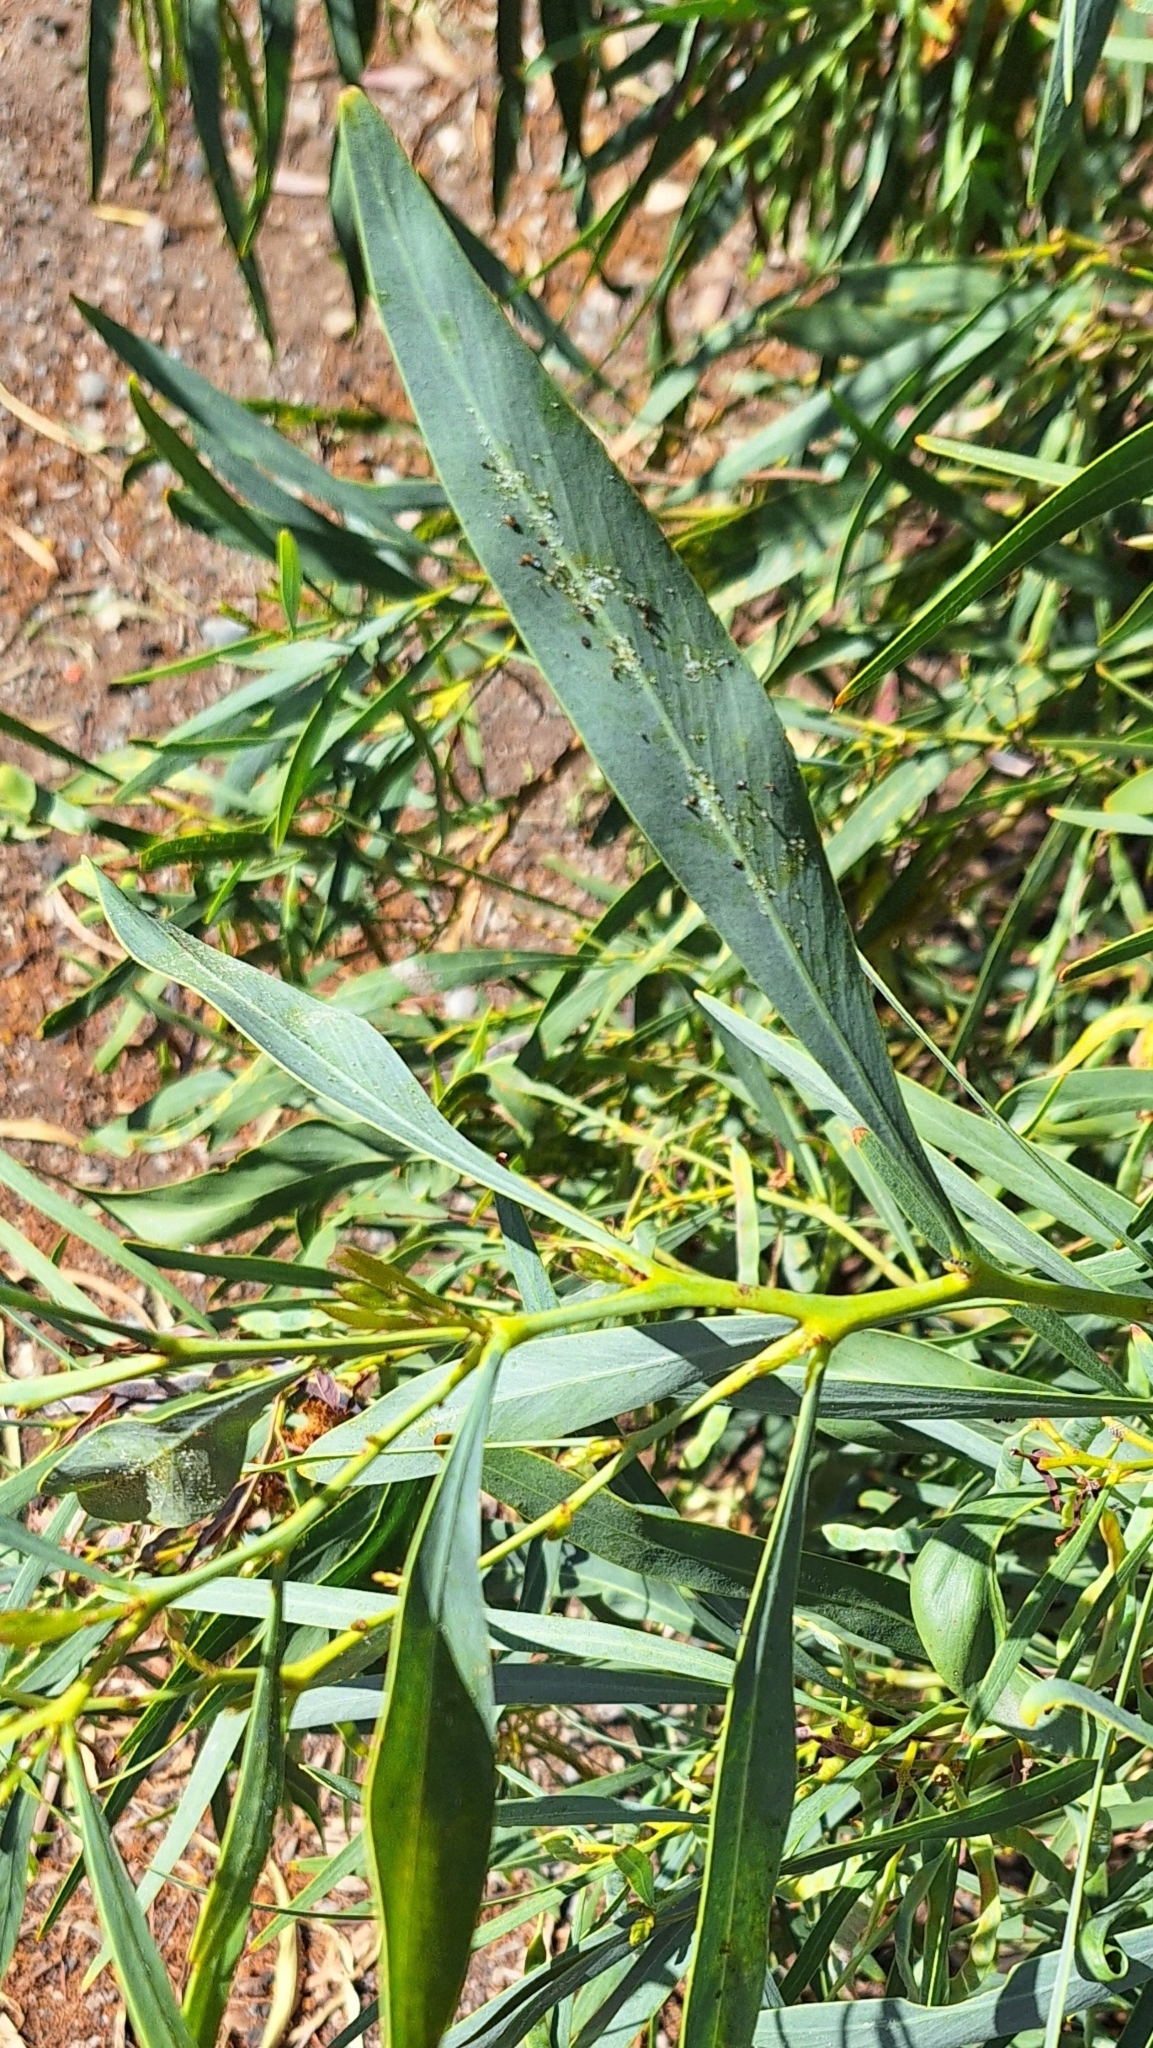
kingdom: Plantae
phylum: Tracheophyta
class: Magnoliopsida
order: Fabales
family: Fabaceae
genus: Acacia
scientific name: Acacia saligna
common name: Orange wattle
